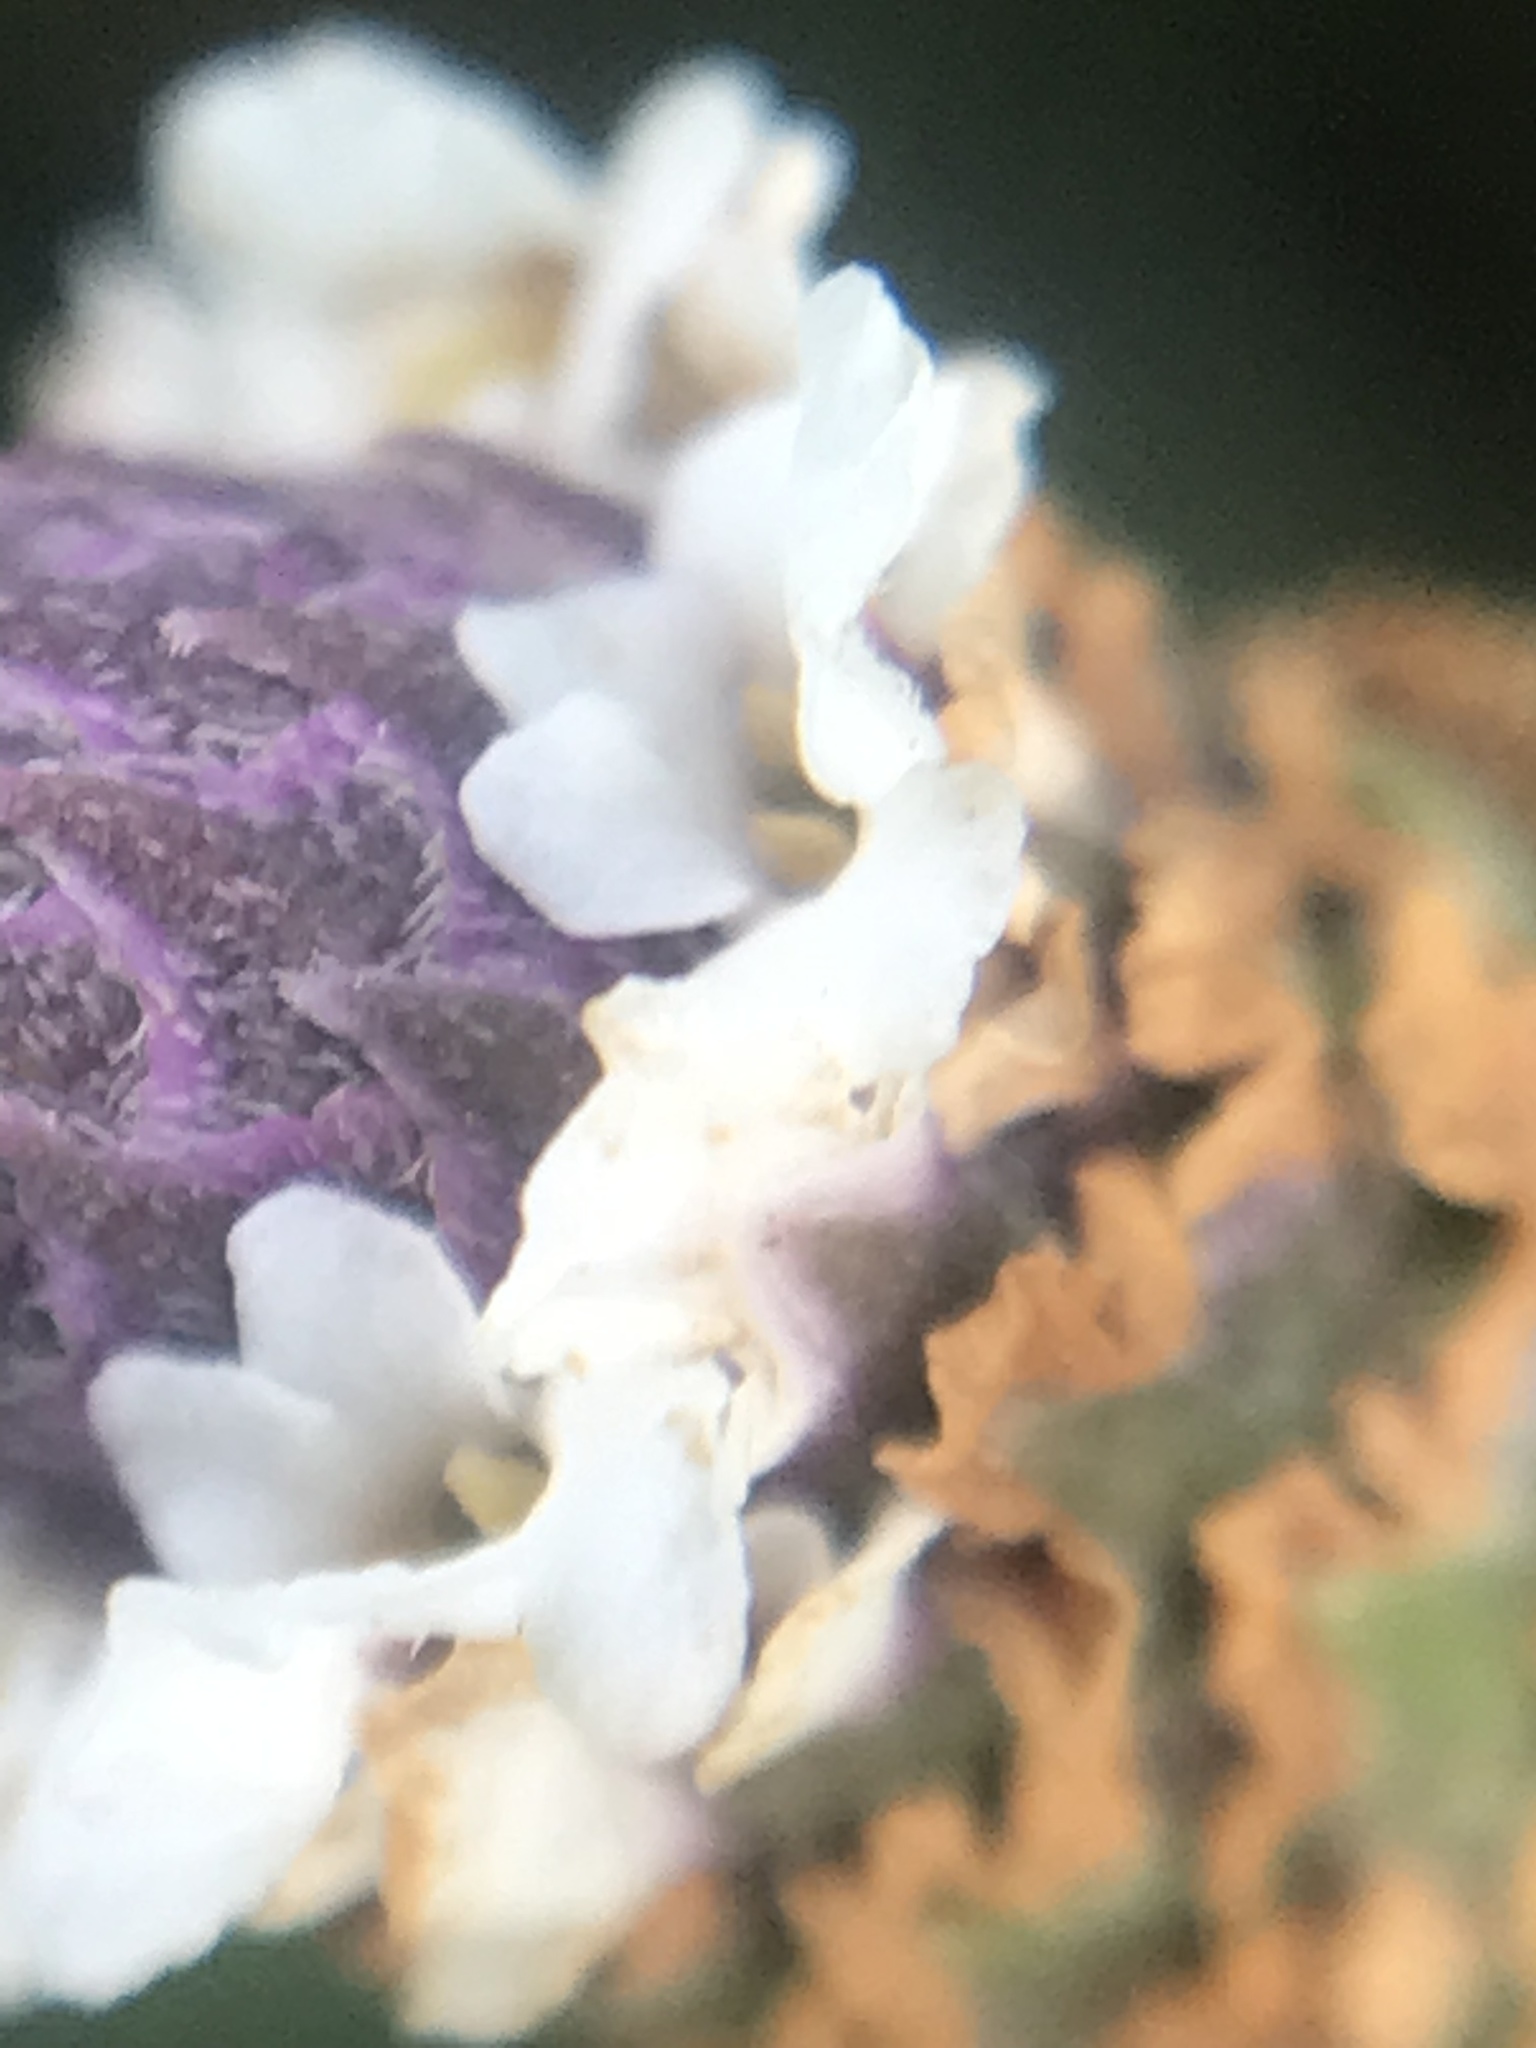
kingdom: Plantae
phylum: Tracheophyta
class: Magnoliopsida
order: Lamiales
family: Verbenaceae
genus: Phyla
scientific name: Phyla nodiflora
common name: Frogfruit
